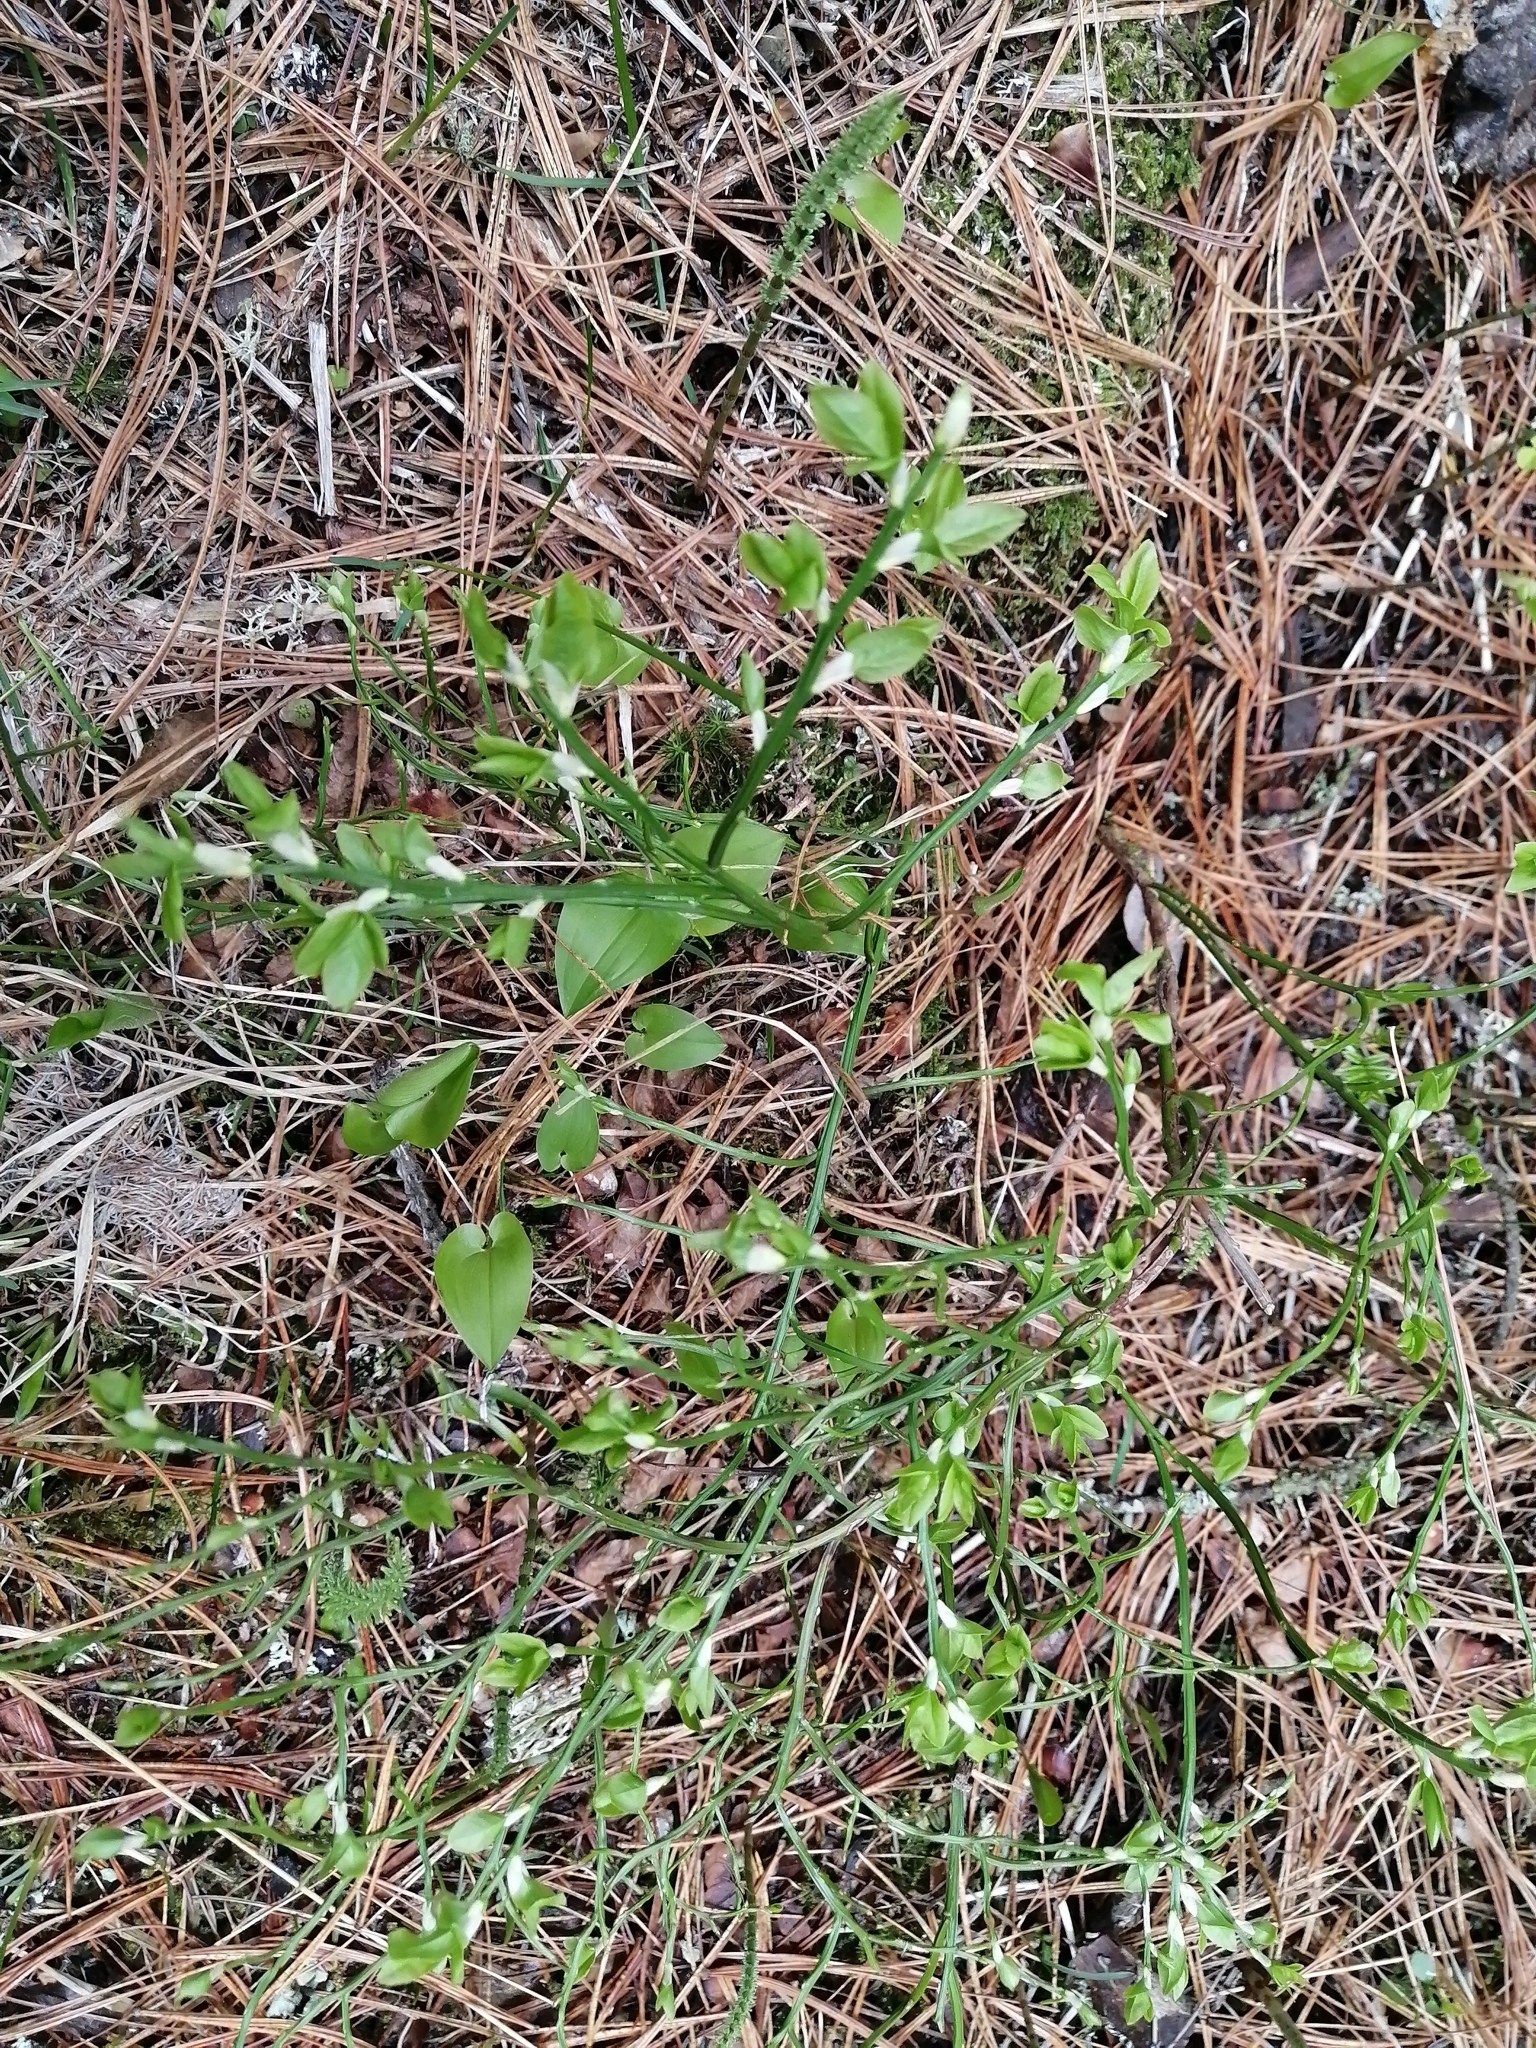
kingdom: Plantae
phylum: Tracheophyta
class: Magnoliopsida
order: Ericales
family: Ericaceae
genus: Vaccinium
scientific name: Vaccinium myrtillus
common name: Bilberry
